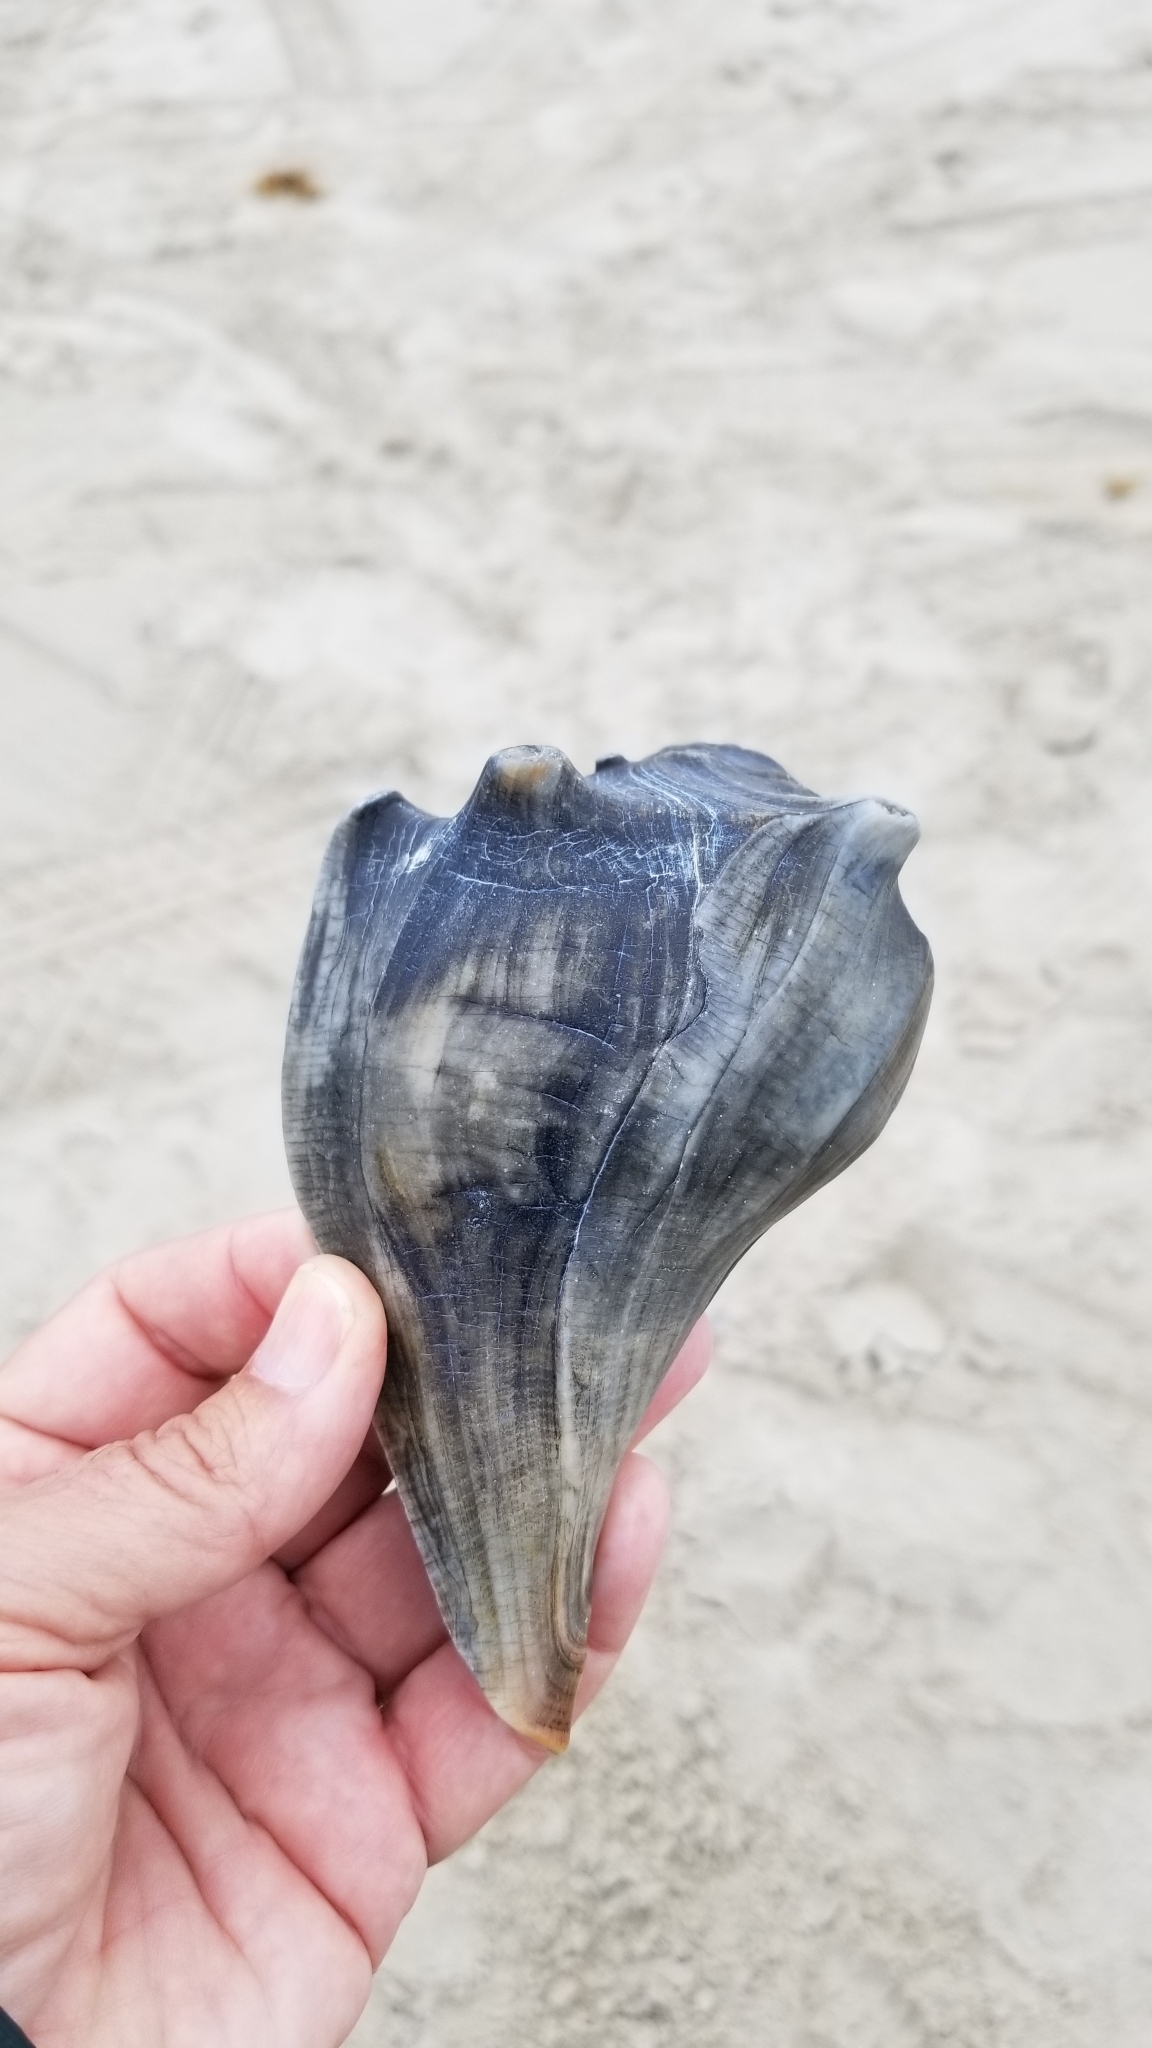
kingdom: Animalia
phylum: Mollusca
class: Gastropoda
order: Neogastropoda
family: Busyconidae
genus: Busycon
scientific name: Busycon carica
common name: Knobbed whelk
